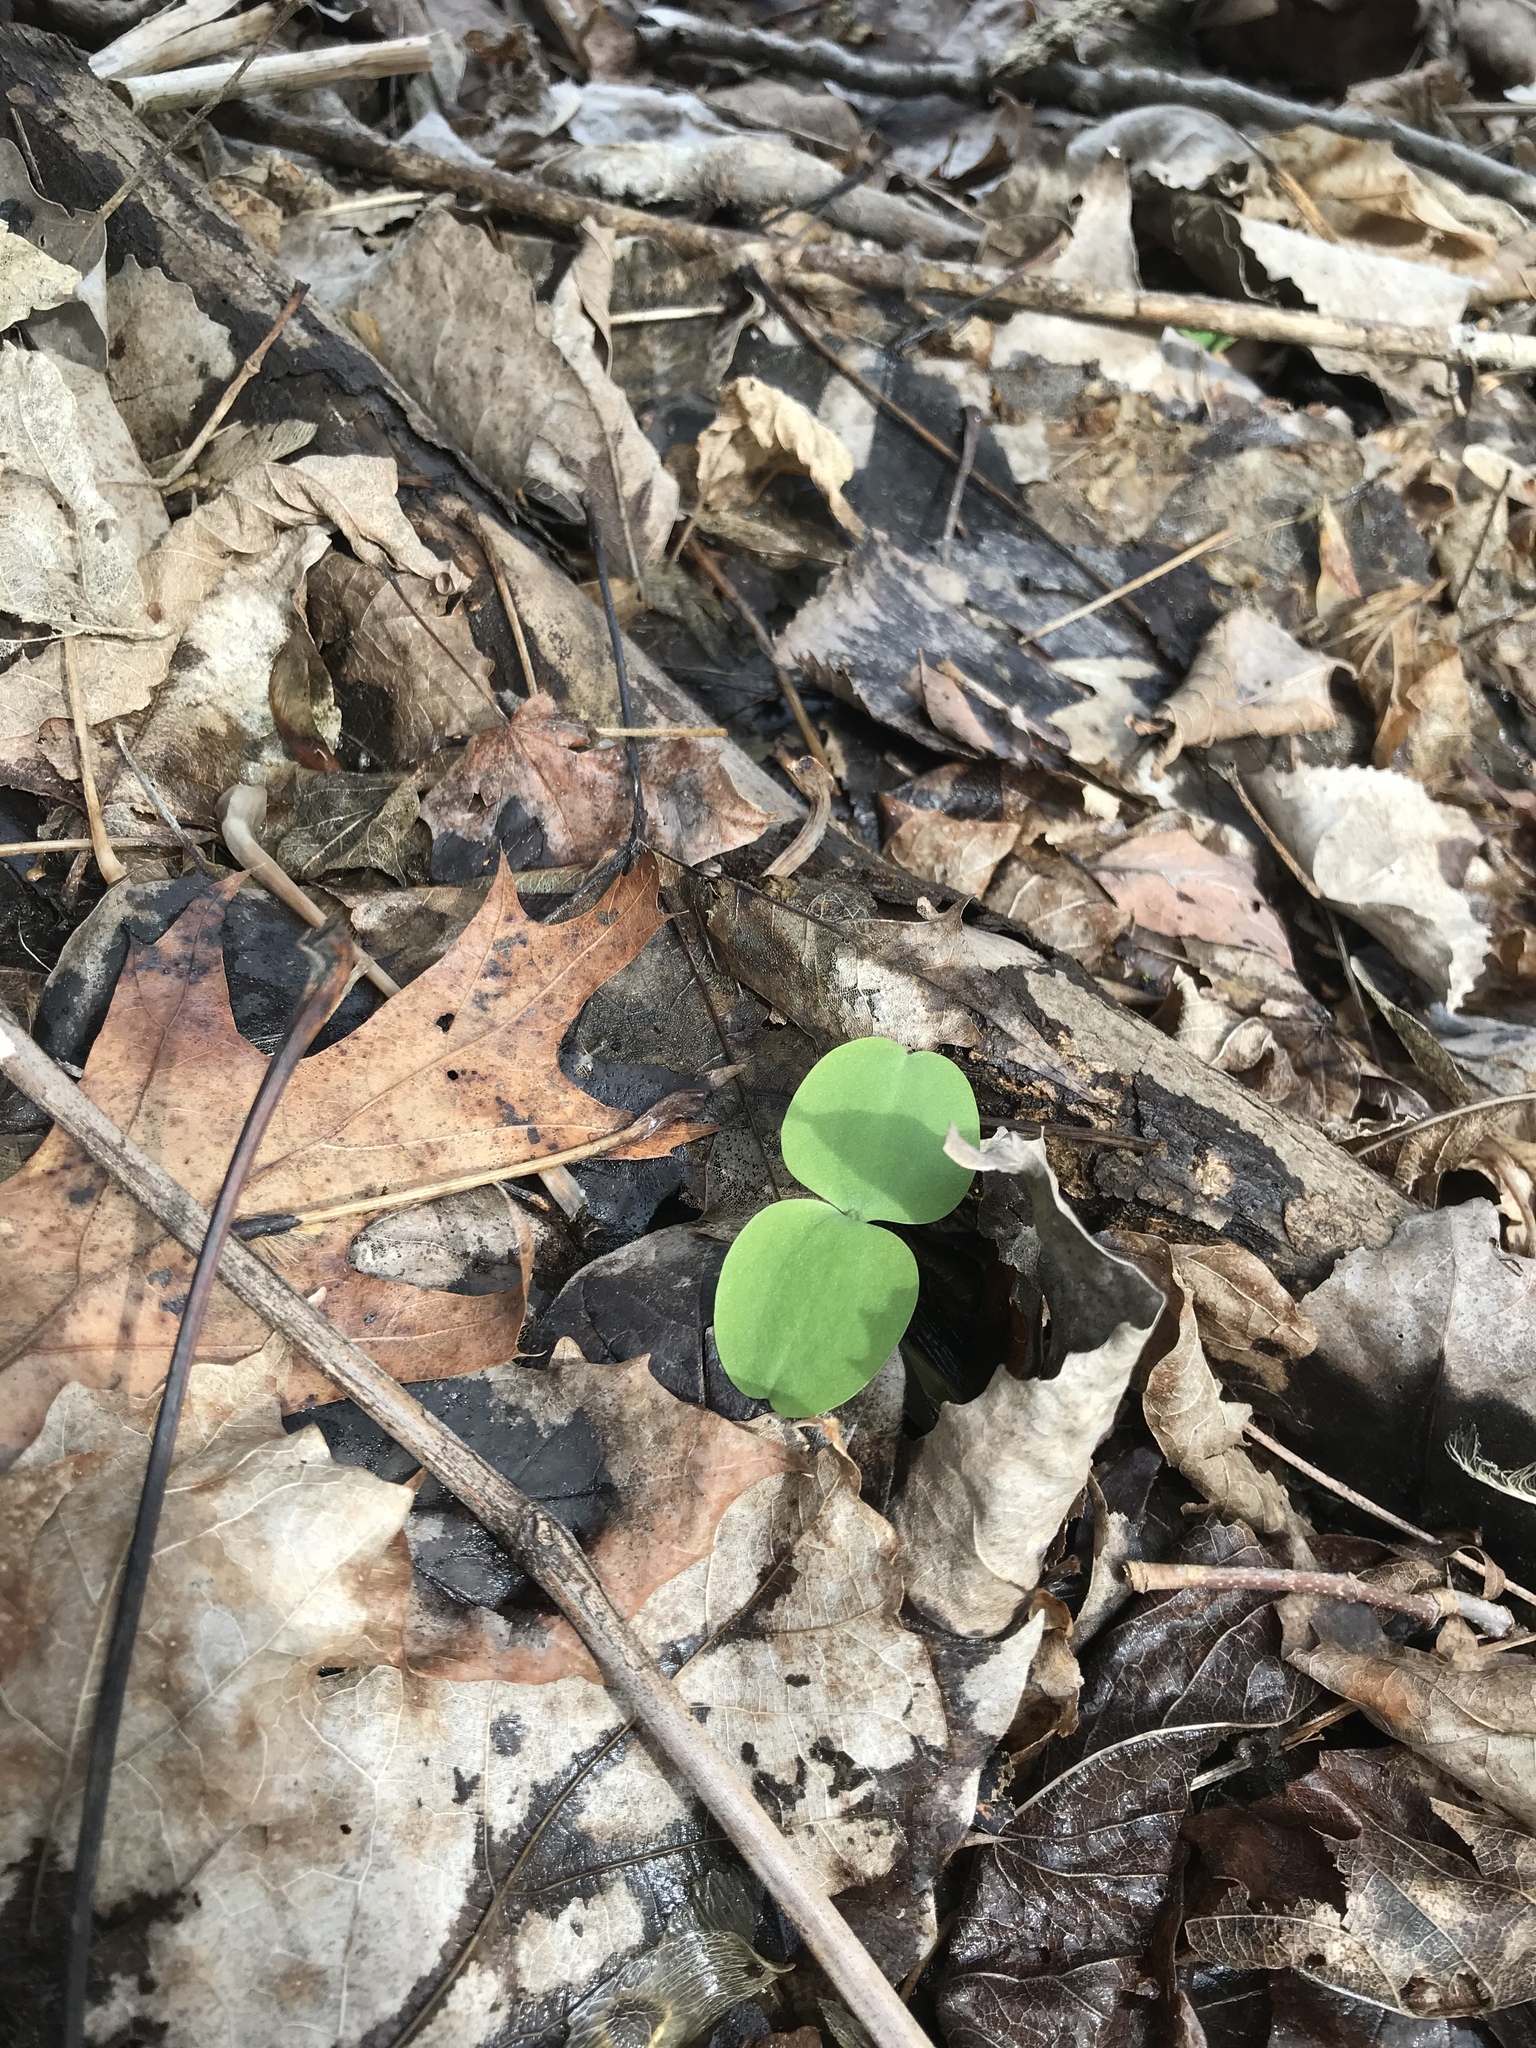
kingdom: Plantae
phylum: Tracheophyta
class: Magnoliopsida
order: Ericales
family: Balsaminaceae
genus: Impatiens
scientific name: Impatiens
